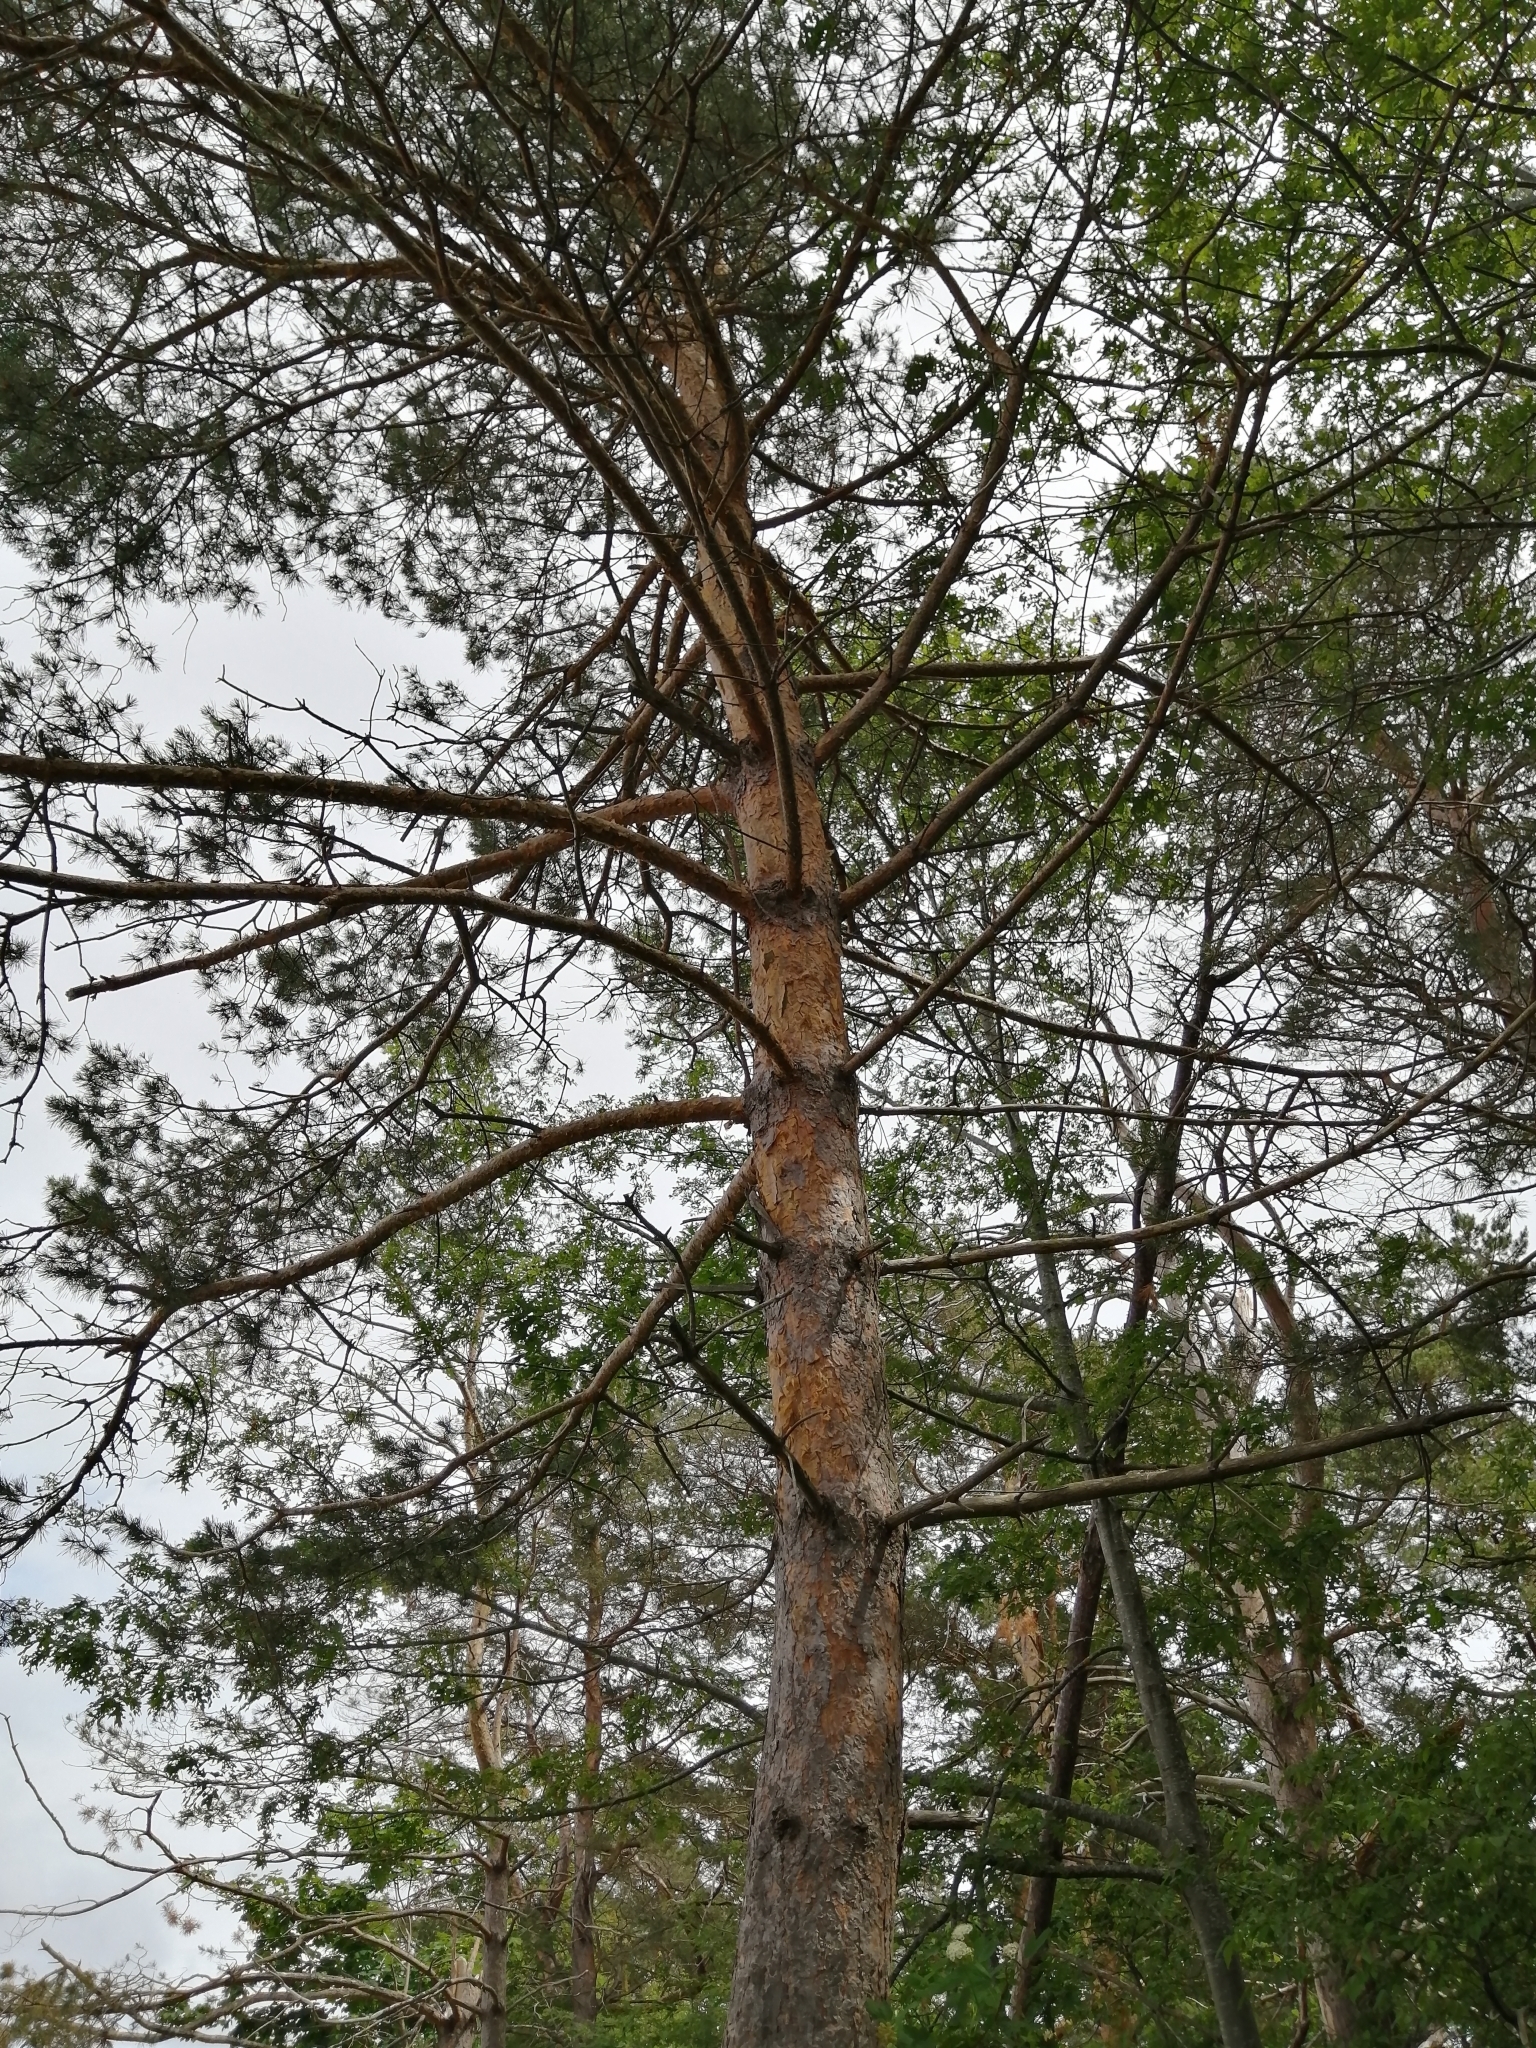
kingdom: Plantae
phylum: Tracheophyta
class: Pinopsida
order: Pinales
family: Pinaceae
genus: Pinus
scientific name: Pinus sylvestris
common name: Scots pine
